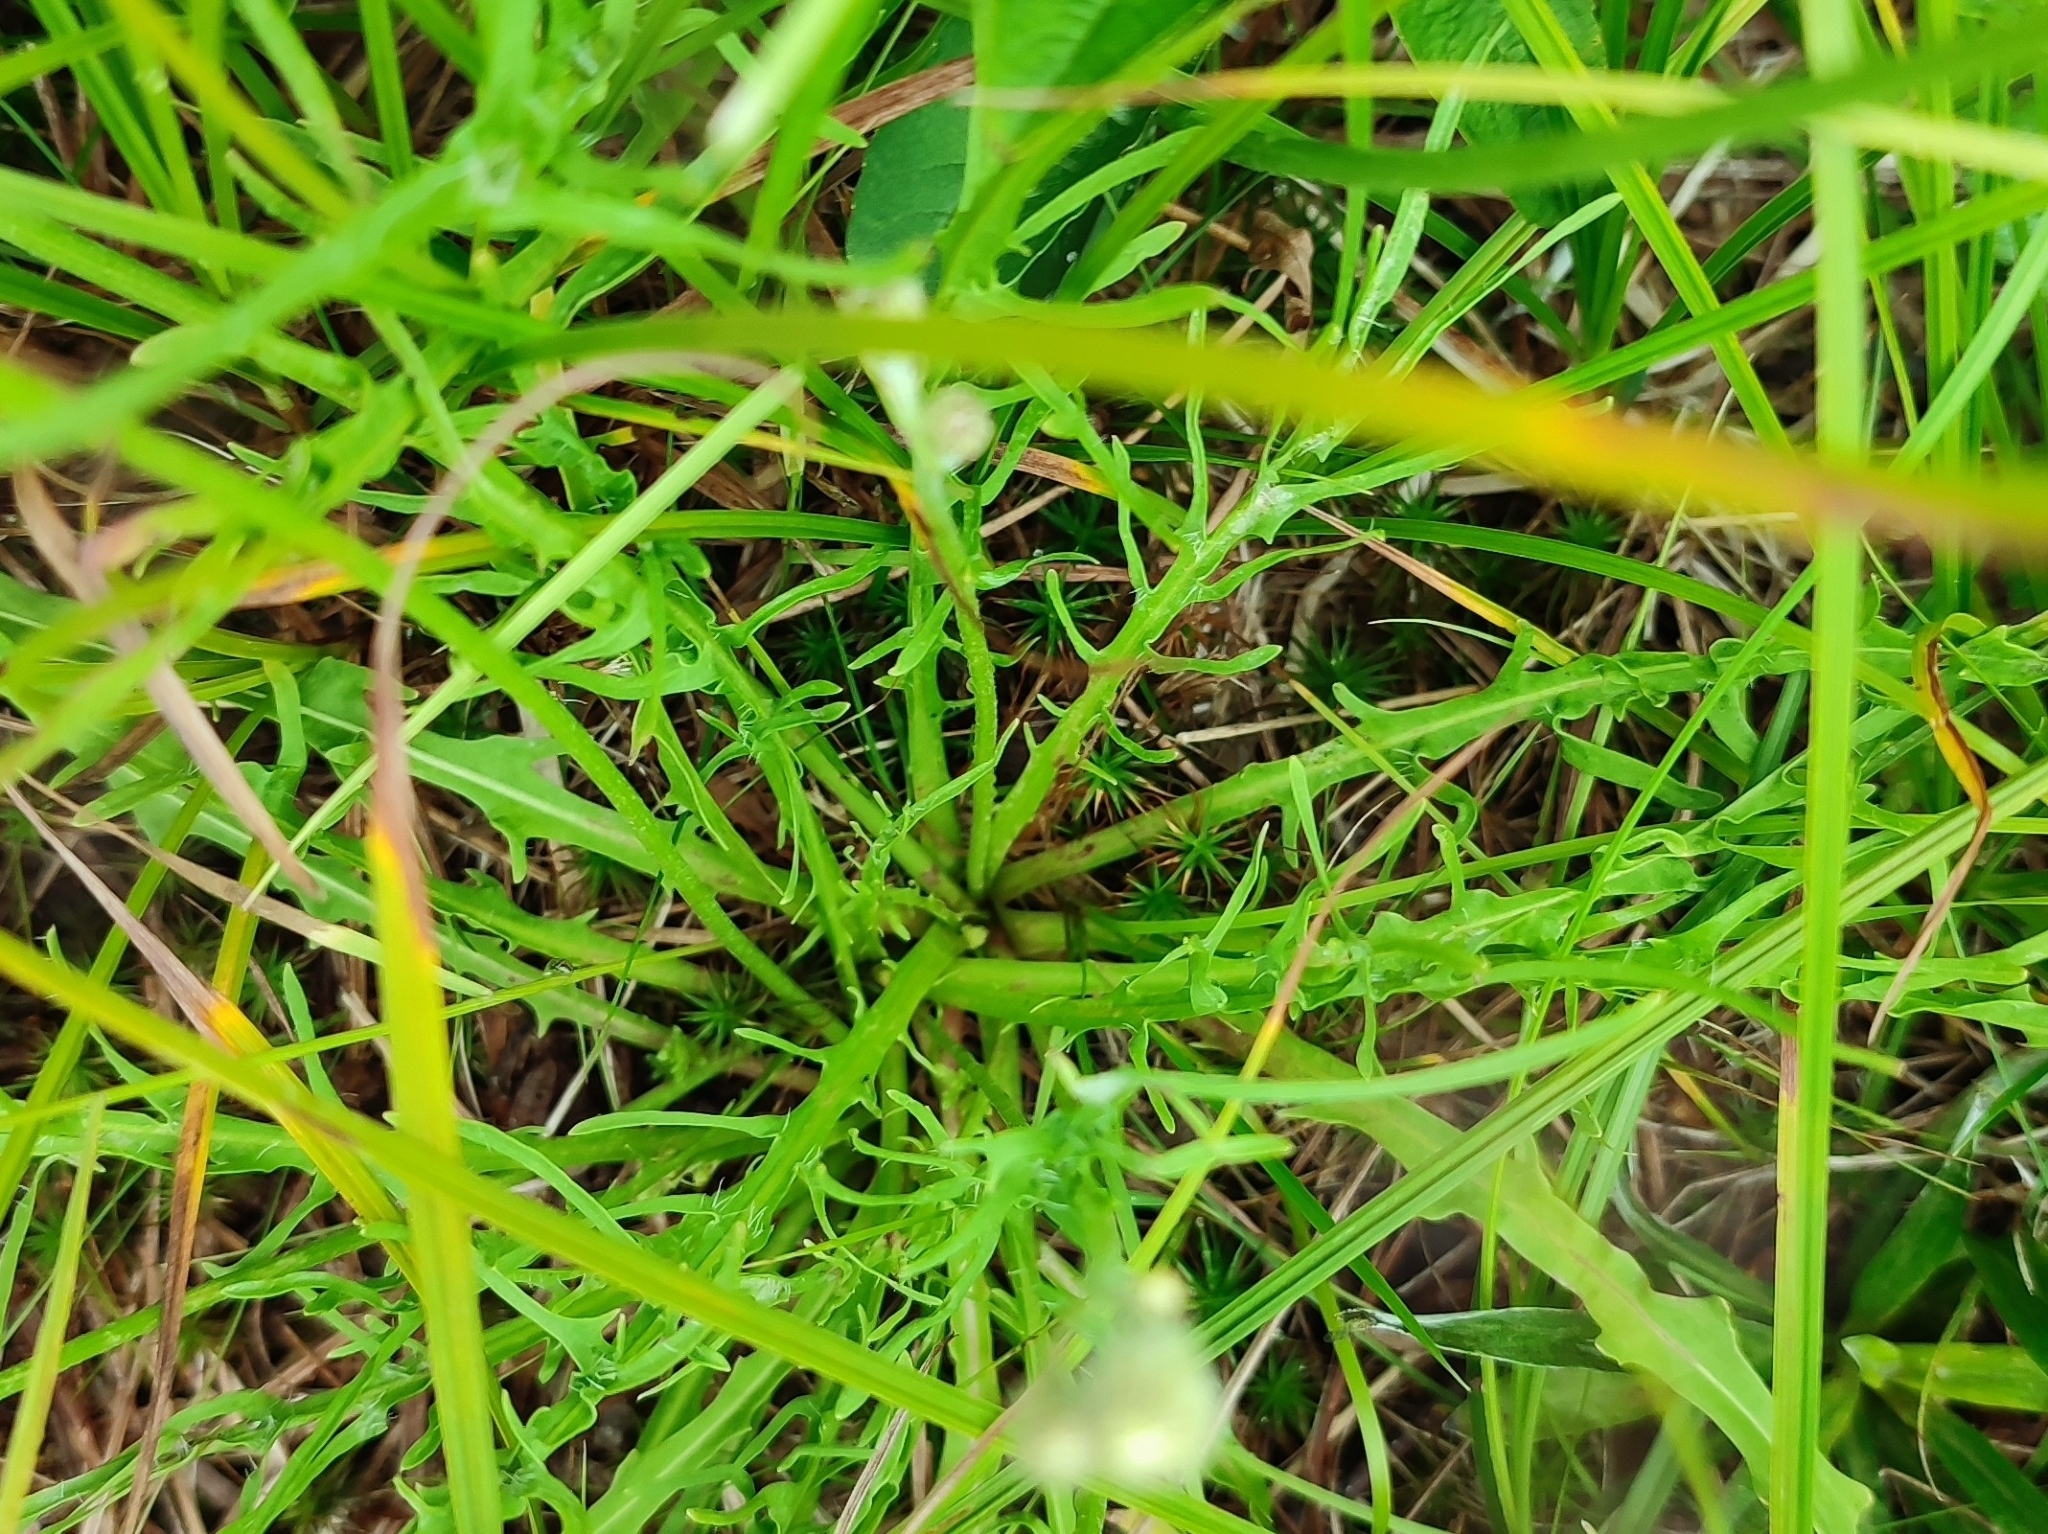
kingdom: Plantae
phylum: Tracheophyta
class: Magnoliopsida
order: Asterales
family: Asteraceae
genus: Scorzoneroides
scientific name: Scorzoneroides autumnalis
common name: Autumn hawkbit
